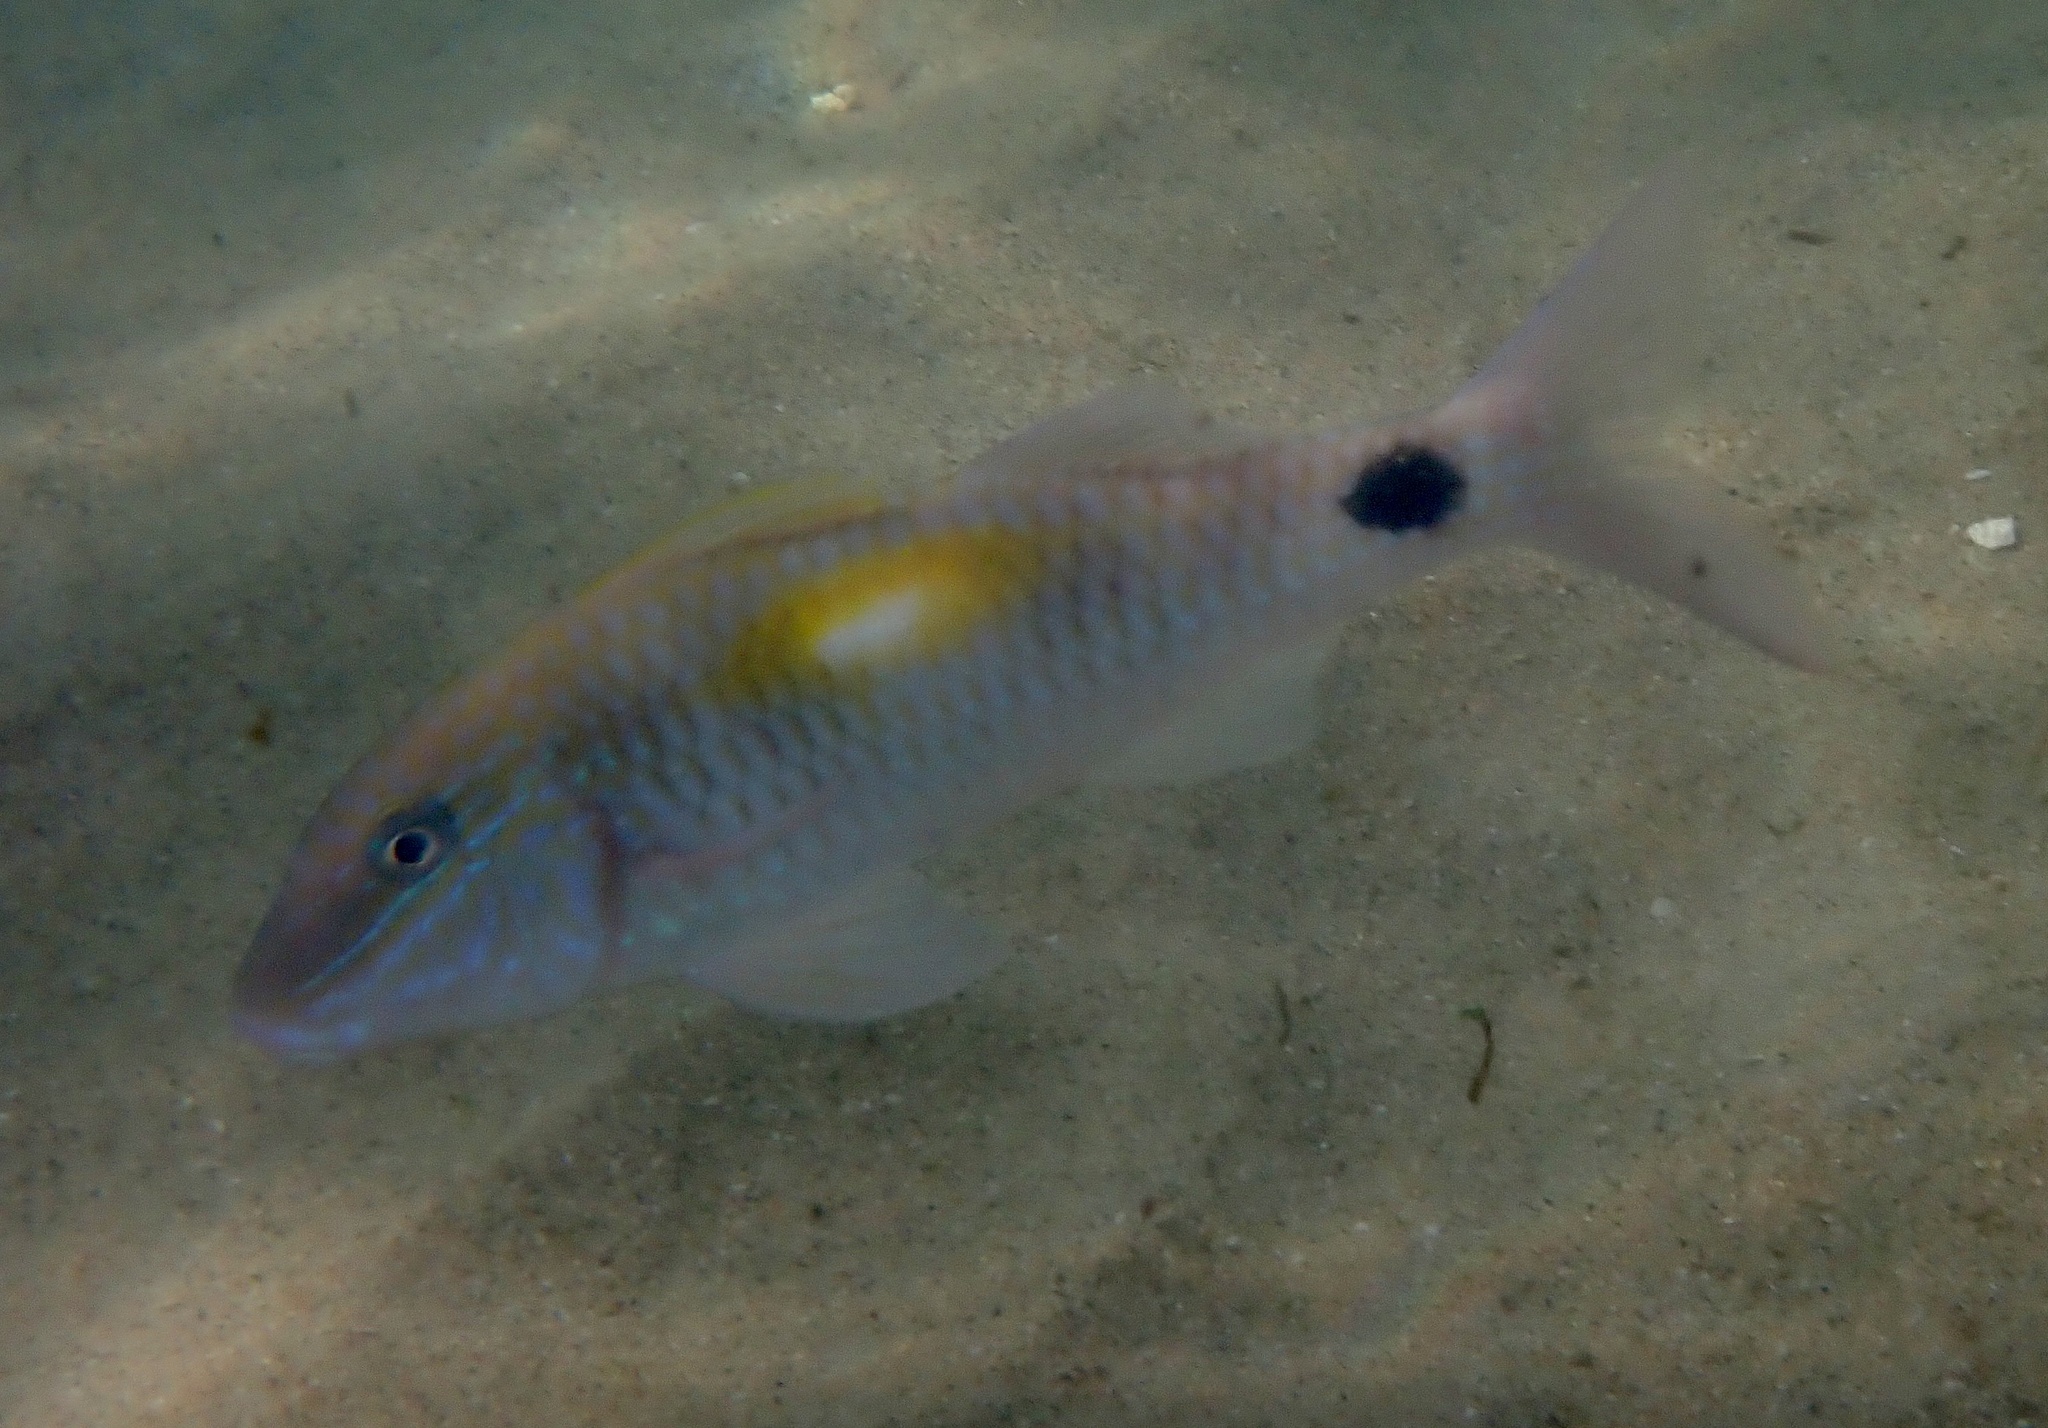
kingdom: Animalia
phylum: Chordata
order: Perciformes
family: Mullidae
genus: Parupeneus
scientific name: Parupeneus indicus
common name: Indian goatfish
